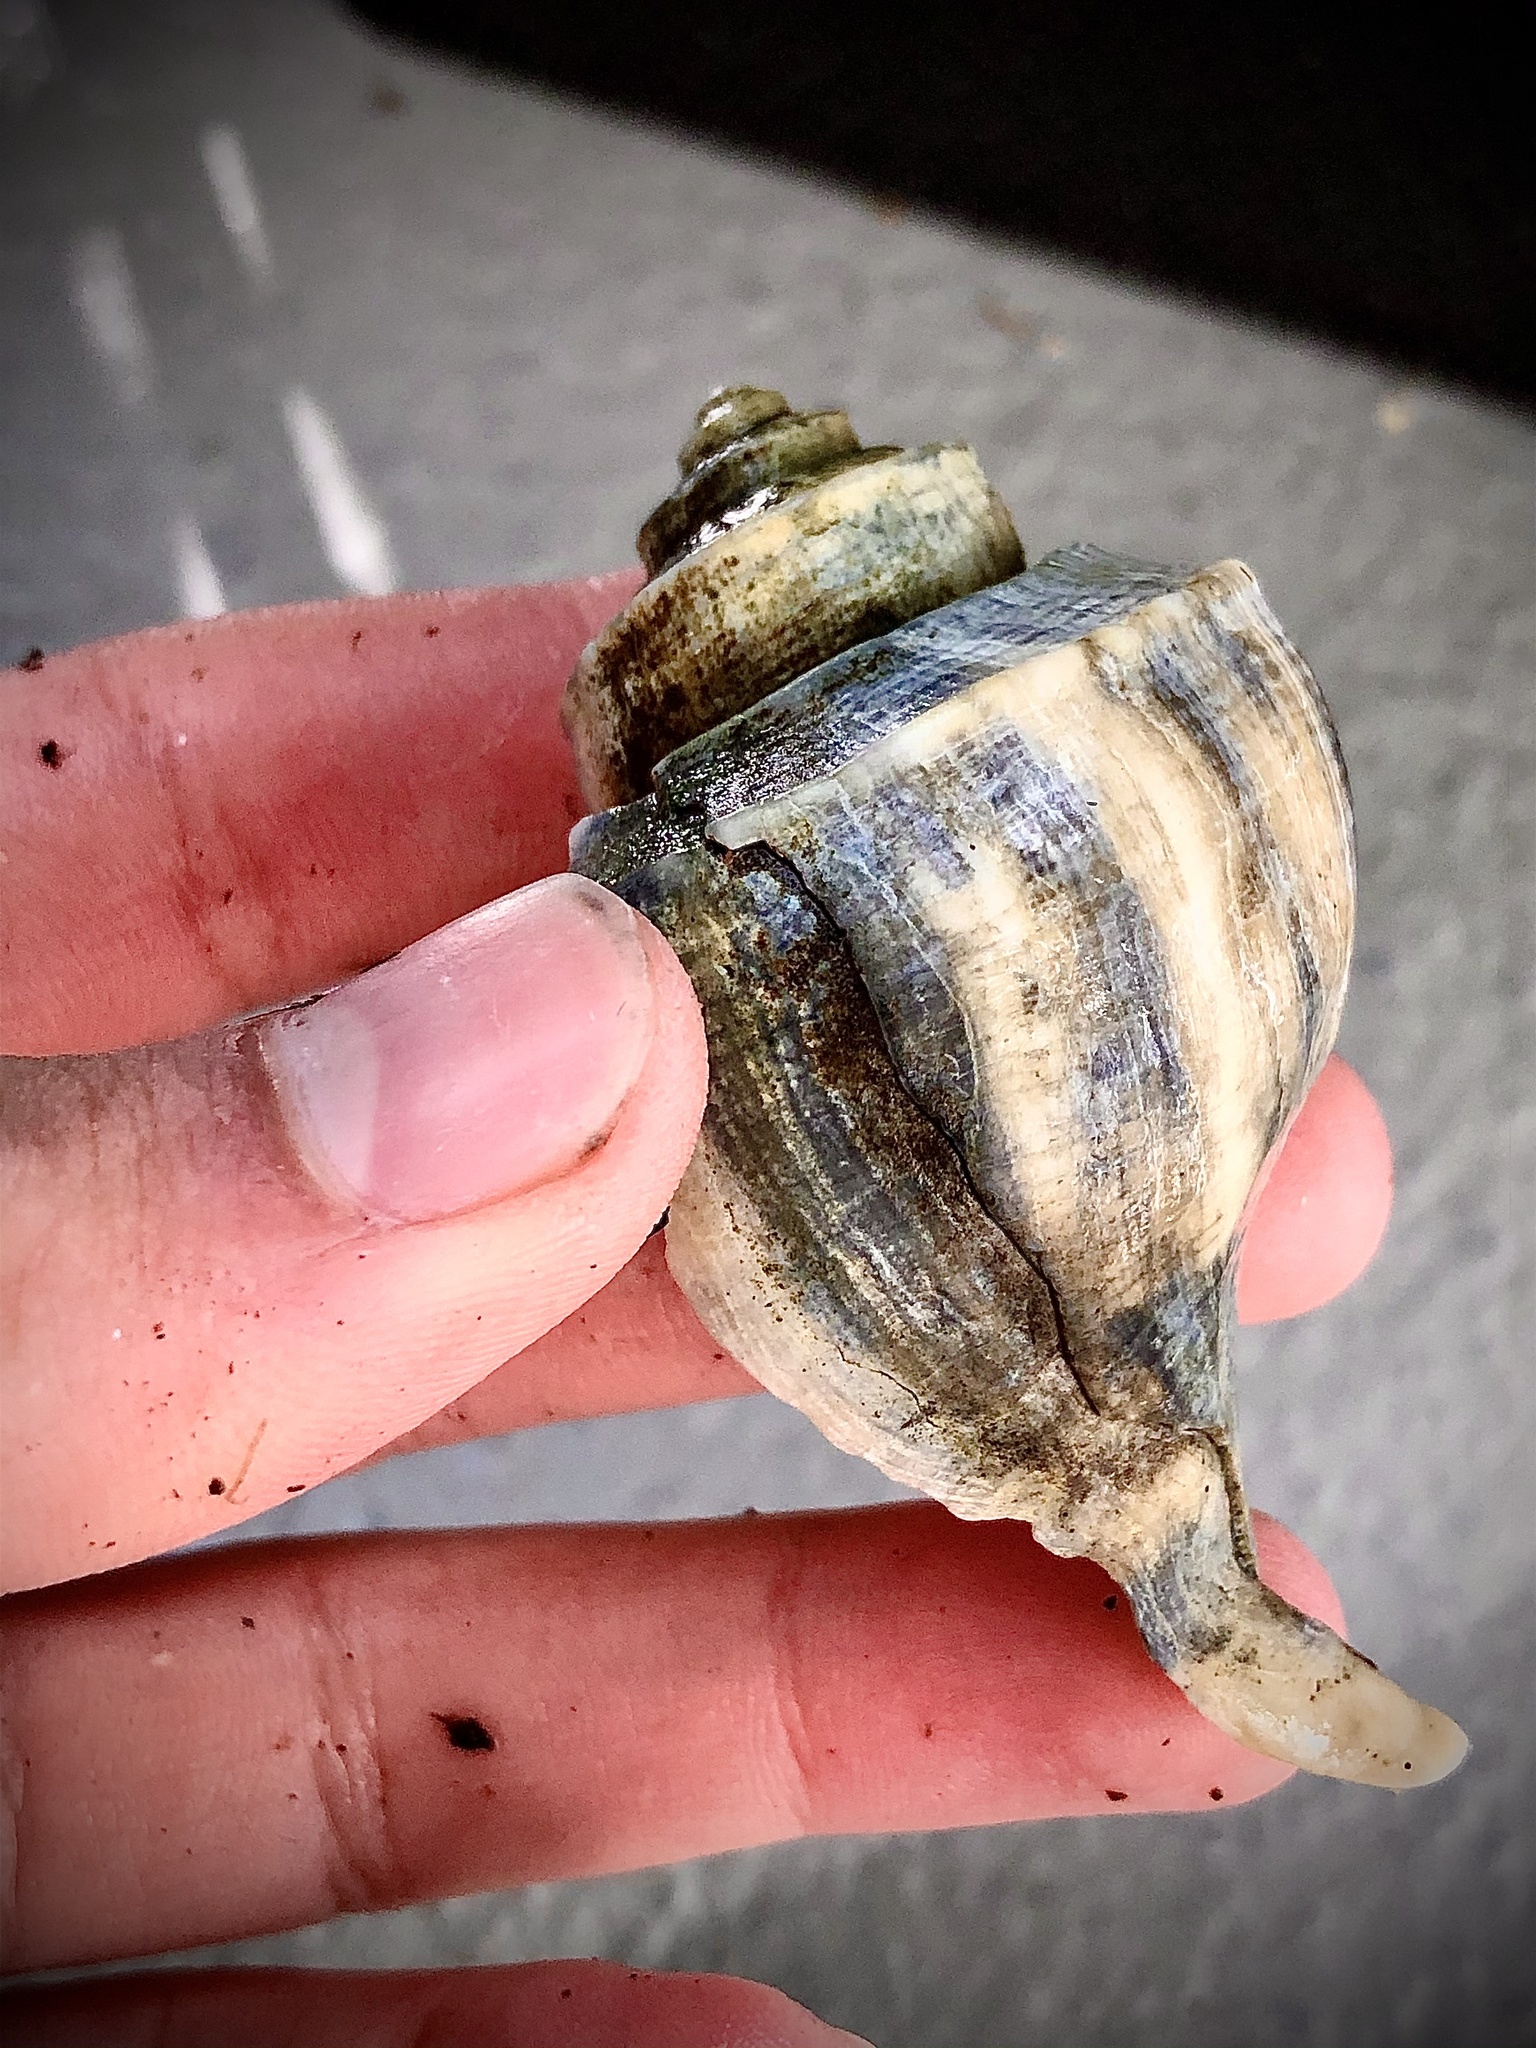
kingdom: Animalia
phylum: Mollusca
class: Gastropoda
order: Neogastropoda
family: Busyconidae
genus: Busycotypus
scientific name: Busycotypus canaliculatus
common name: Channeled whelk
